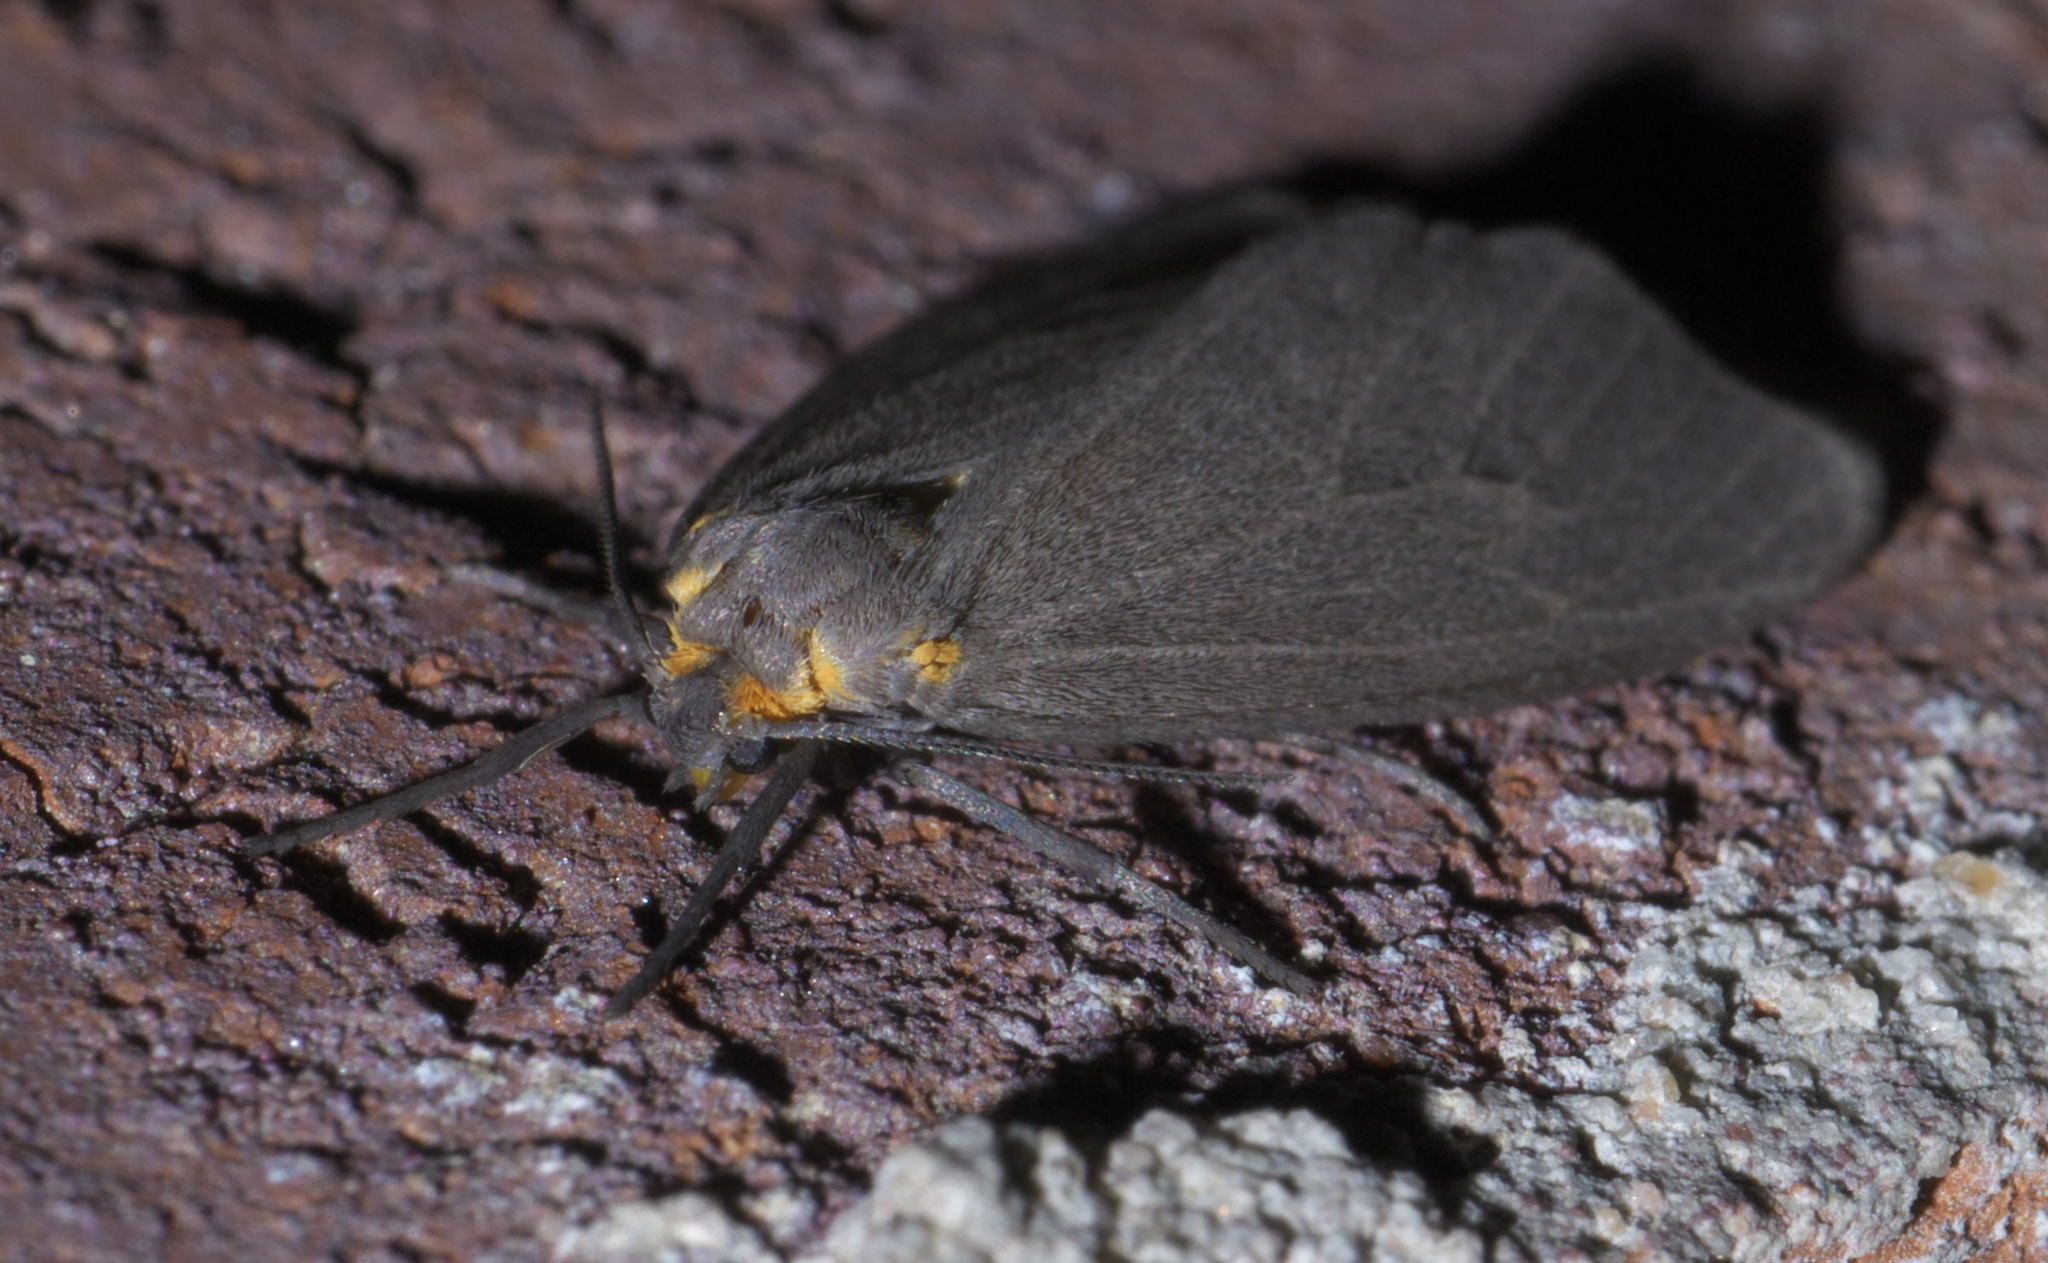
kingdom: Animalia
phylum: Arthropoda
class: Insecta
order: Lepidoptera
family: Erebidae
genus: Pagara
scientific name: Pagara simplex
